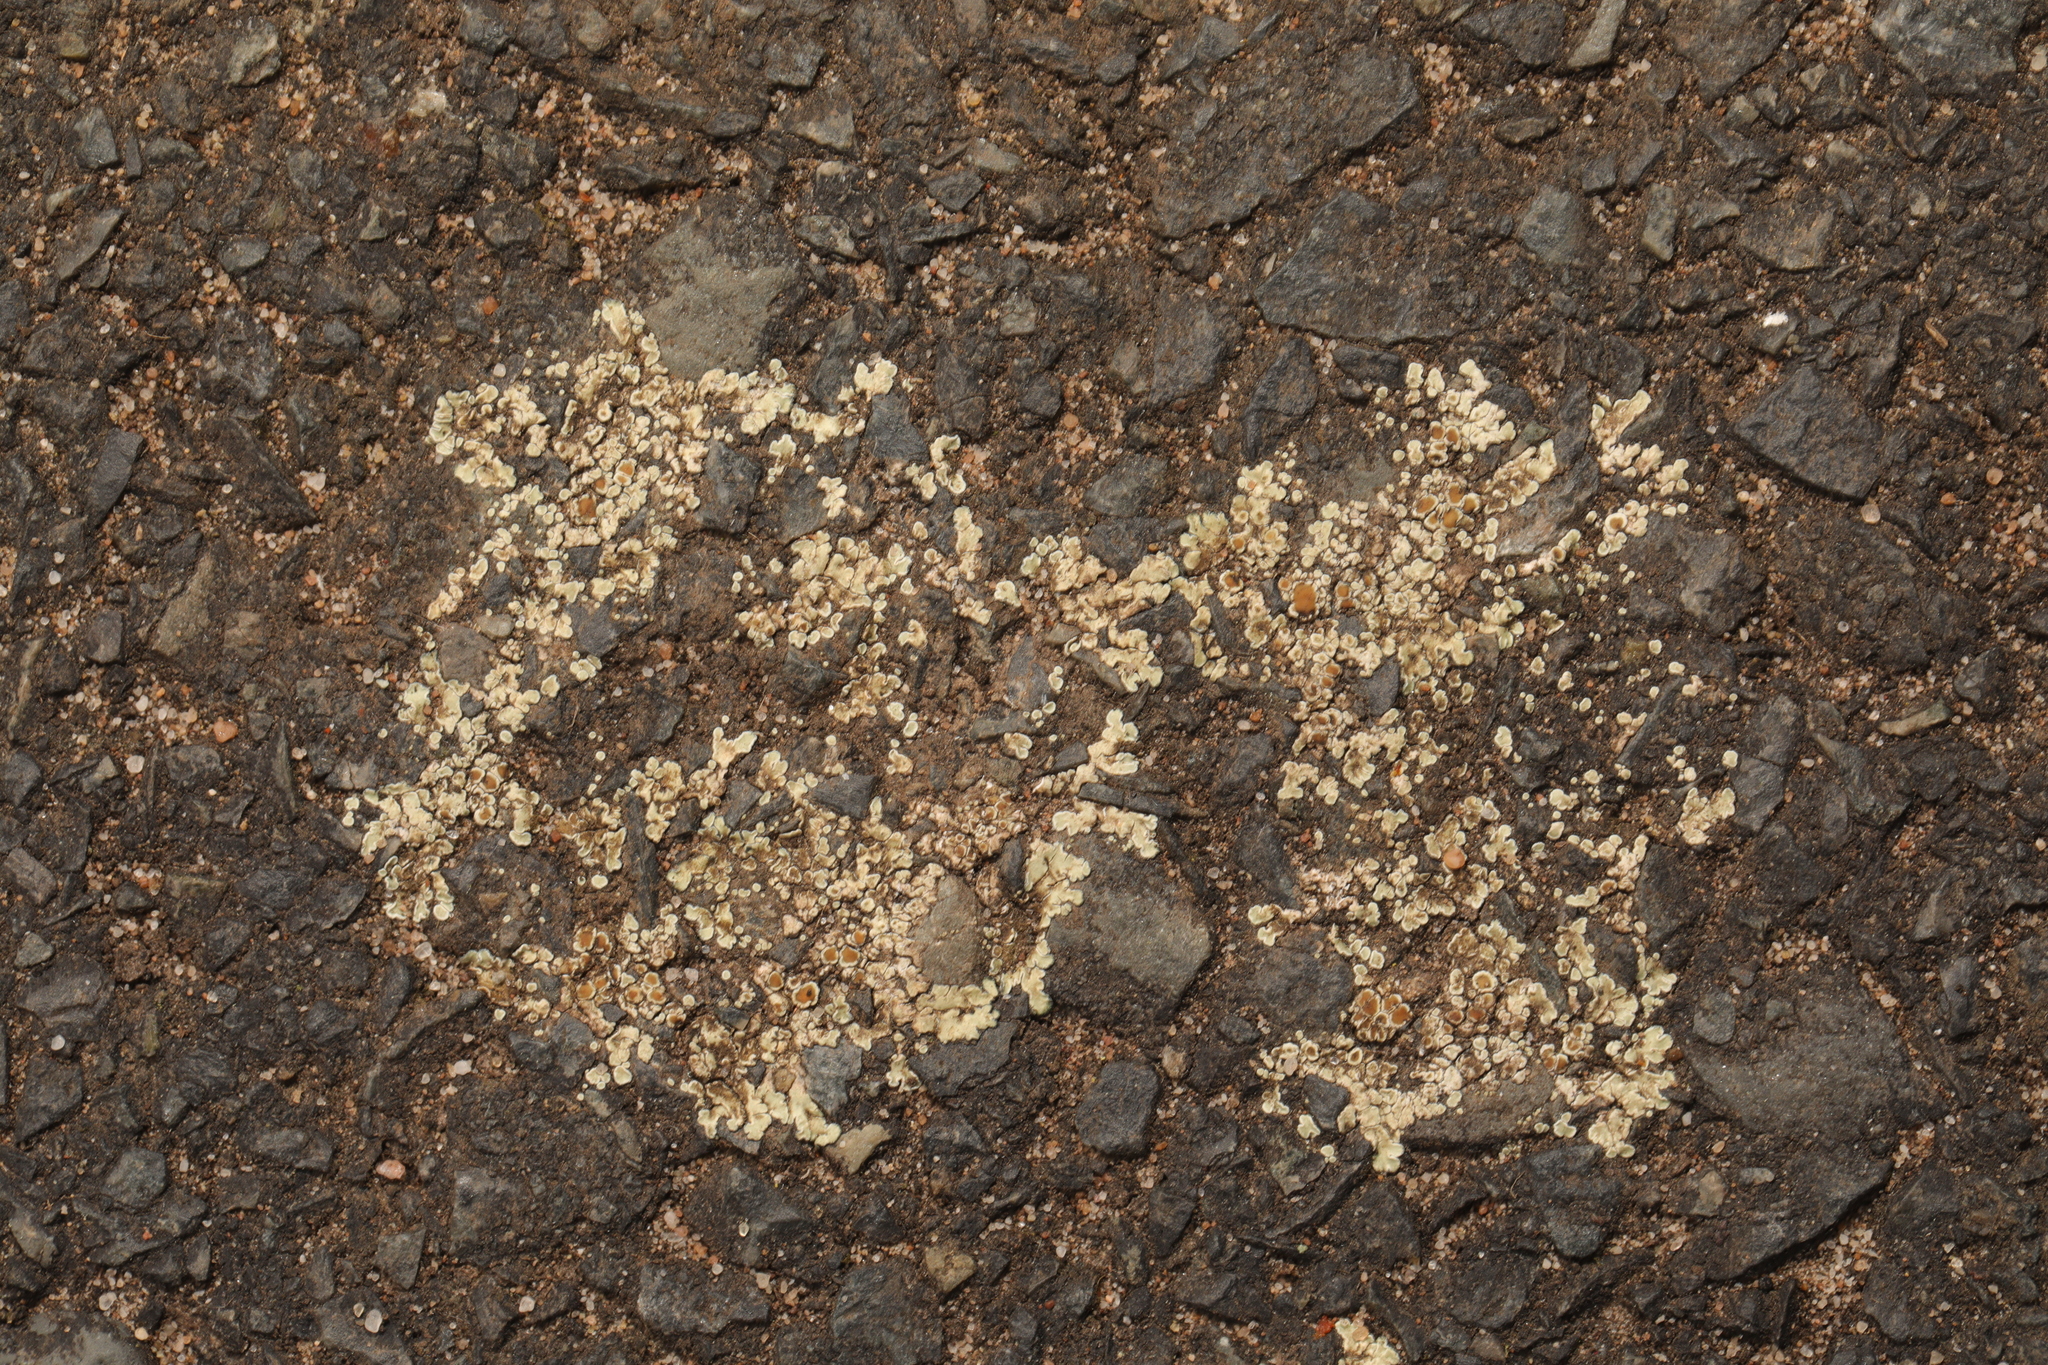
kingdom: Fungi
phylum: Ascomycota
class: Lecanoromycetes
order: Lecanorales
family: Lecanoraceae
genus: Protoparmeliopsis
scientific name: Protoparmeliopsis muralis
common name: Stonewall rim lichen
